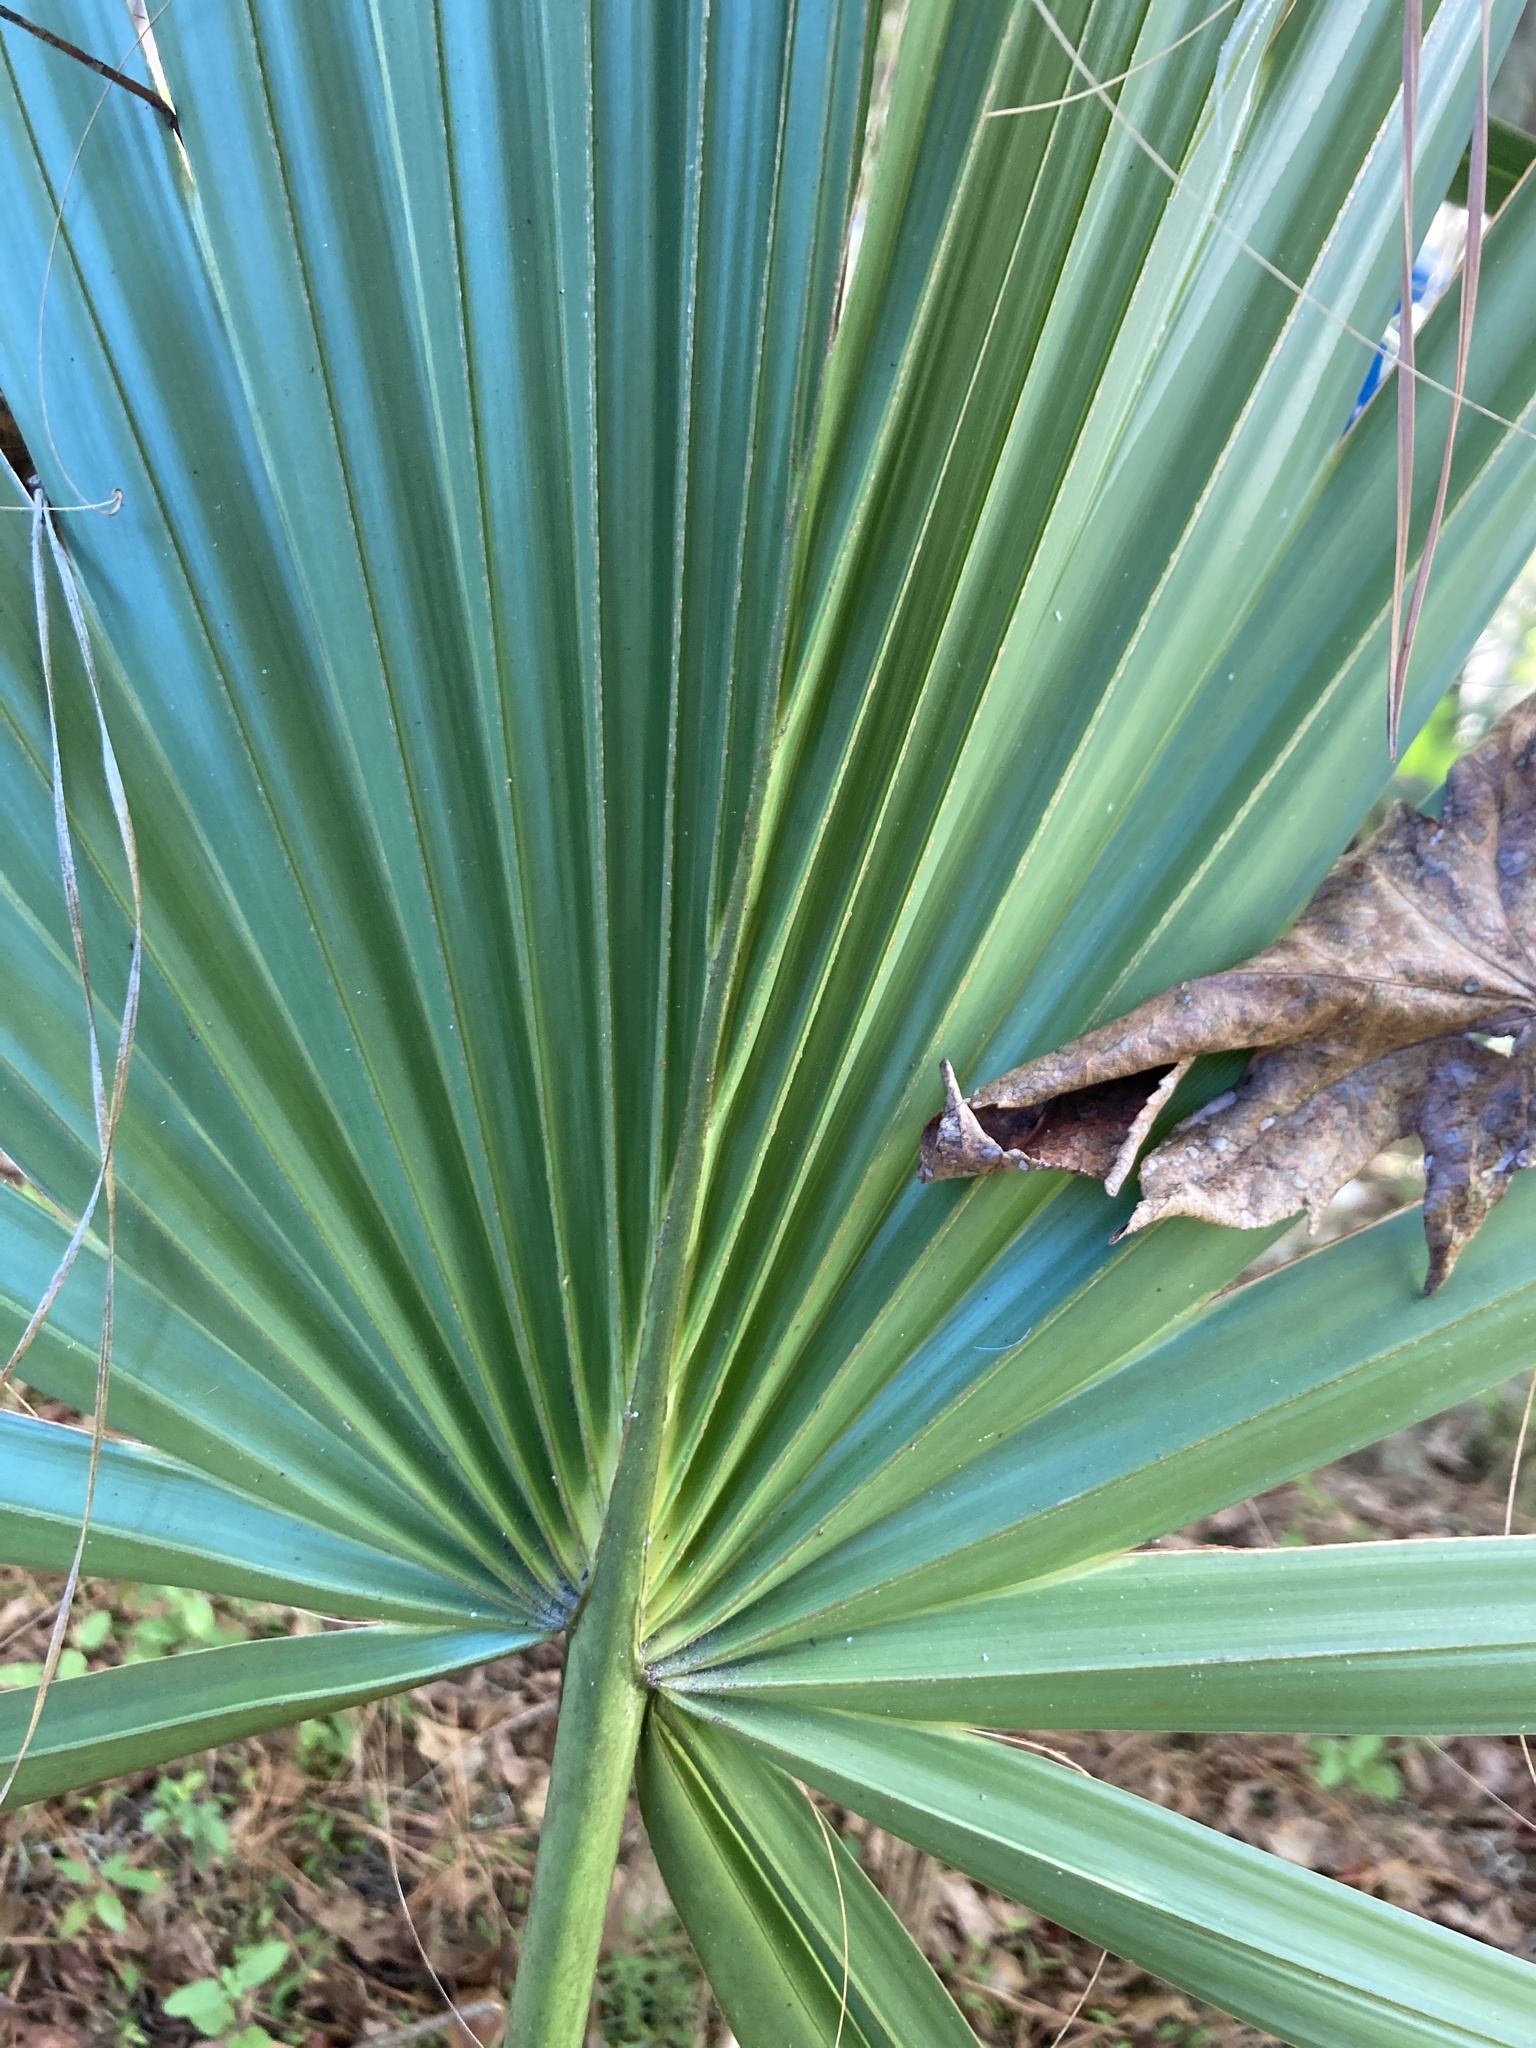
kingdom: Plantae
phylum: Tracheophyta
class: Liliopsida
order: Arecales
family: Arecaceae
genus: Sabal
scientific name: Sabal palmetto
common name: Blue palmetto
